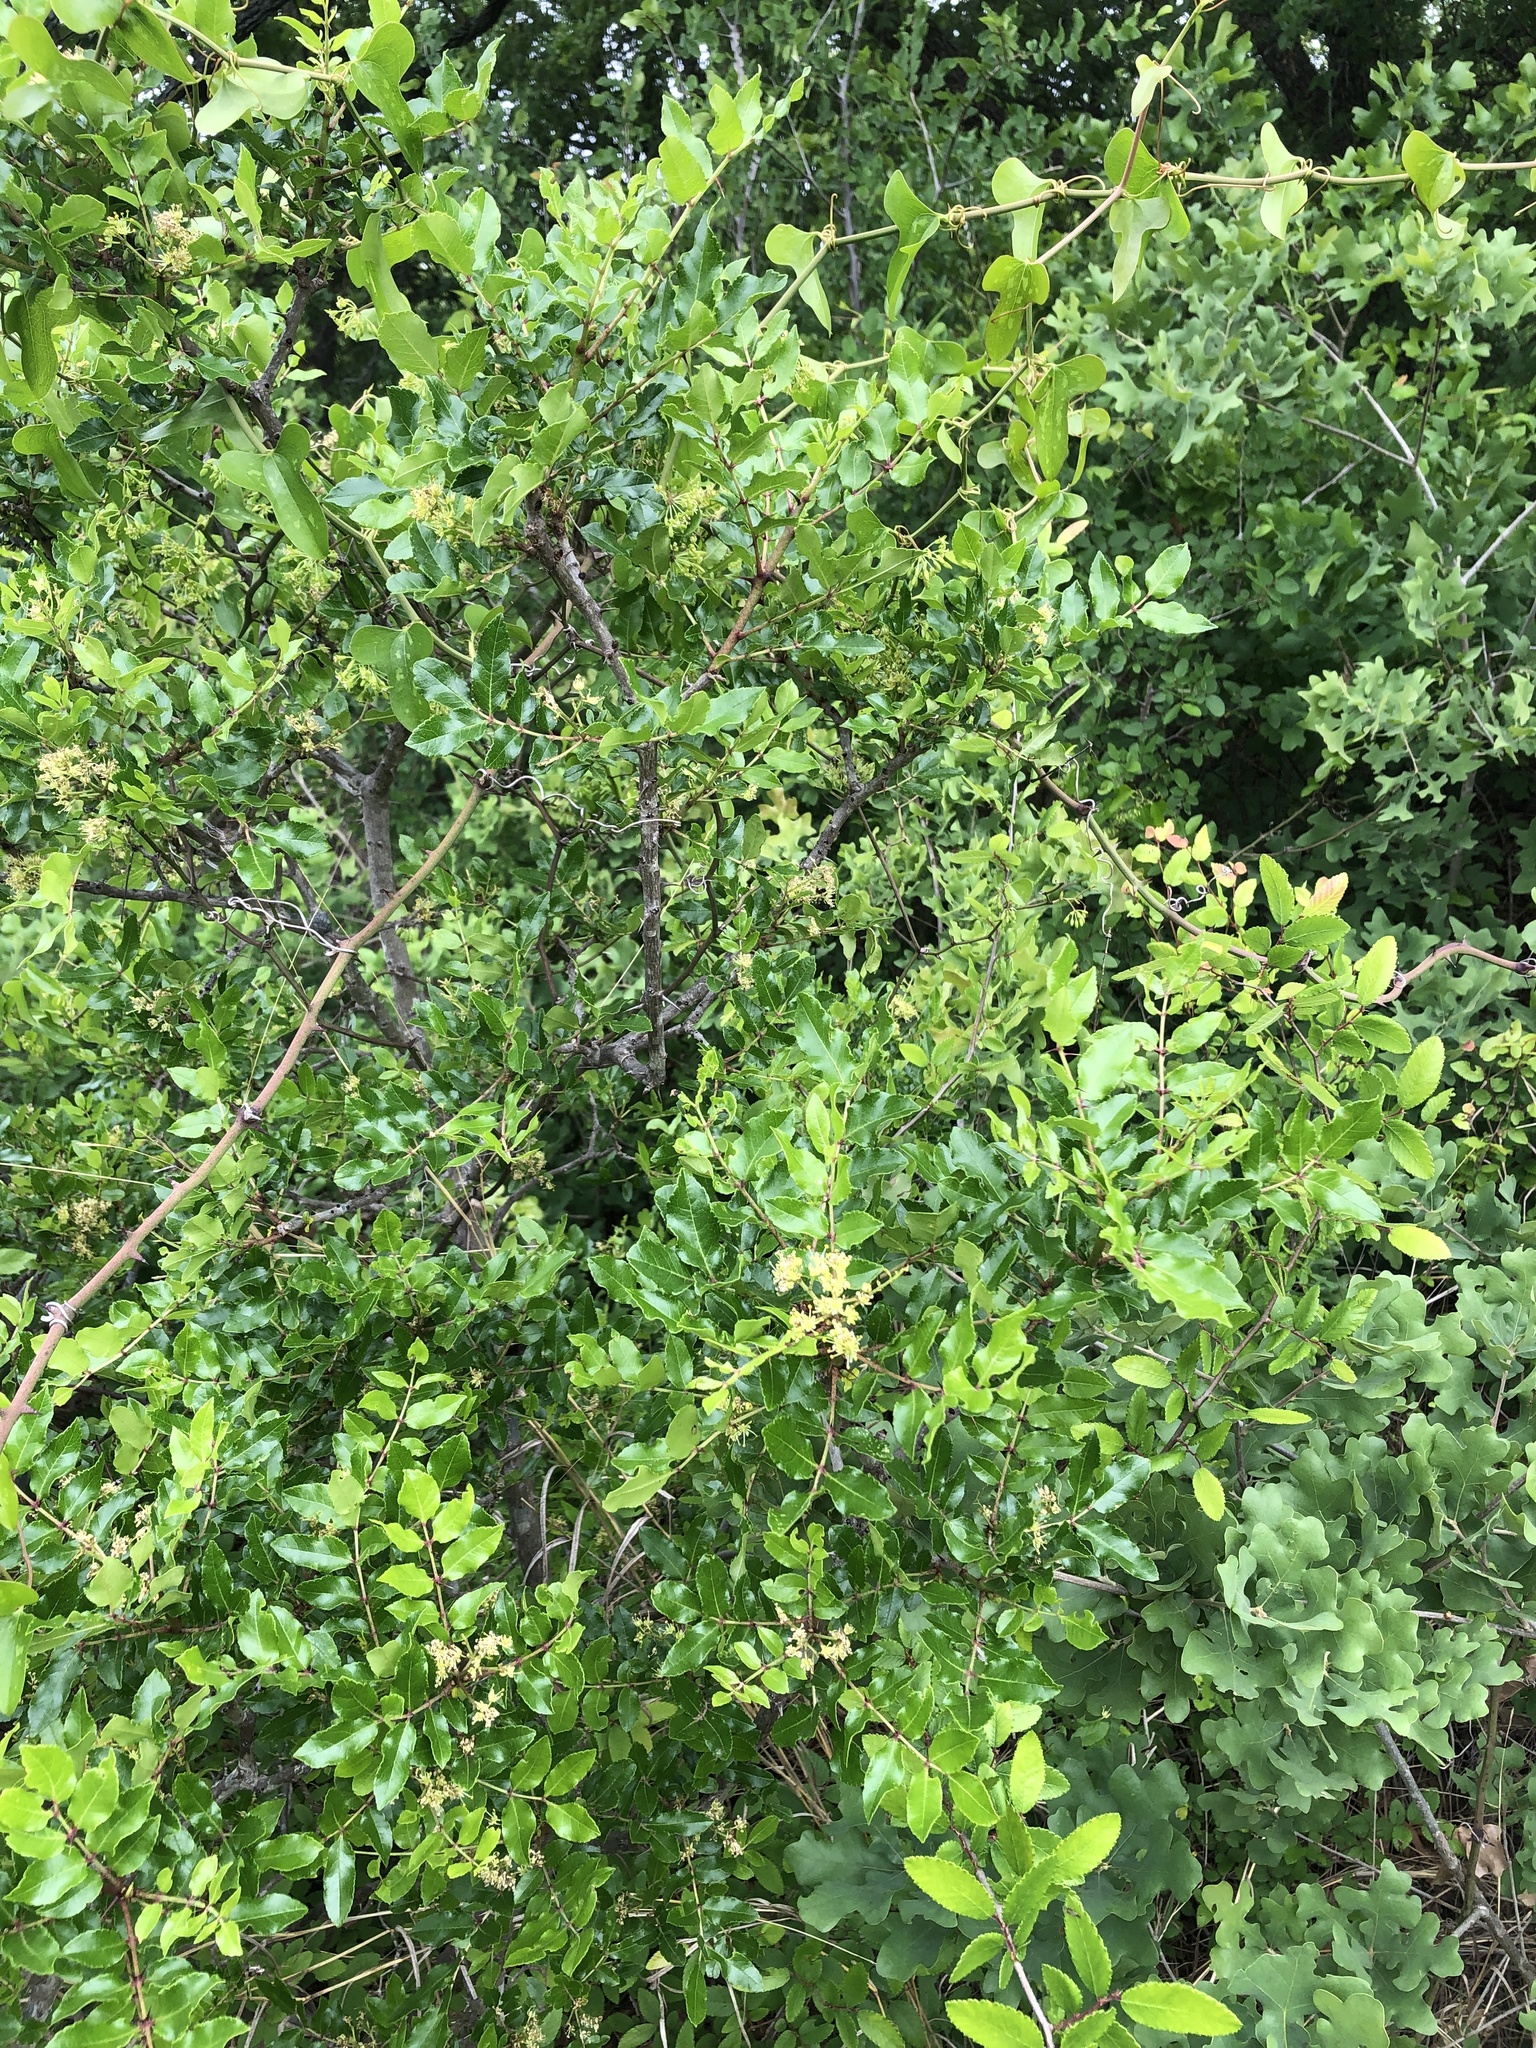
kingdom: Plantae
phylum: Tracheophyta
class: Magnoliopsida
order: Sapindales
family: Rutaceae
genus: Zanthoxylum
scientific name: Zanthoxylum clava-herculis
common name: Hercules'-club
